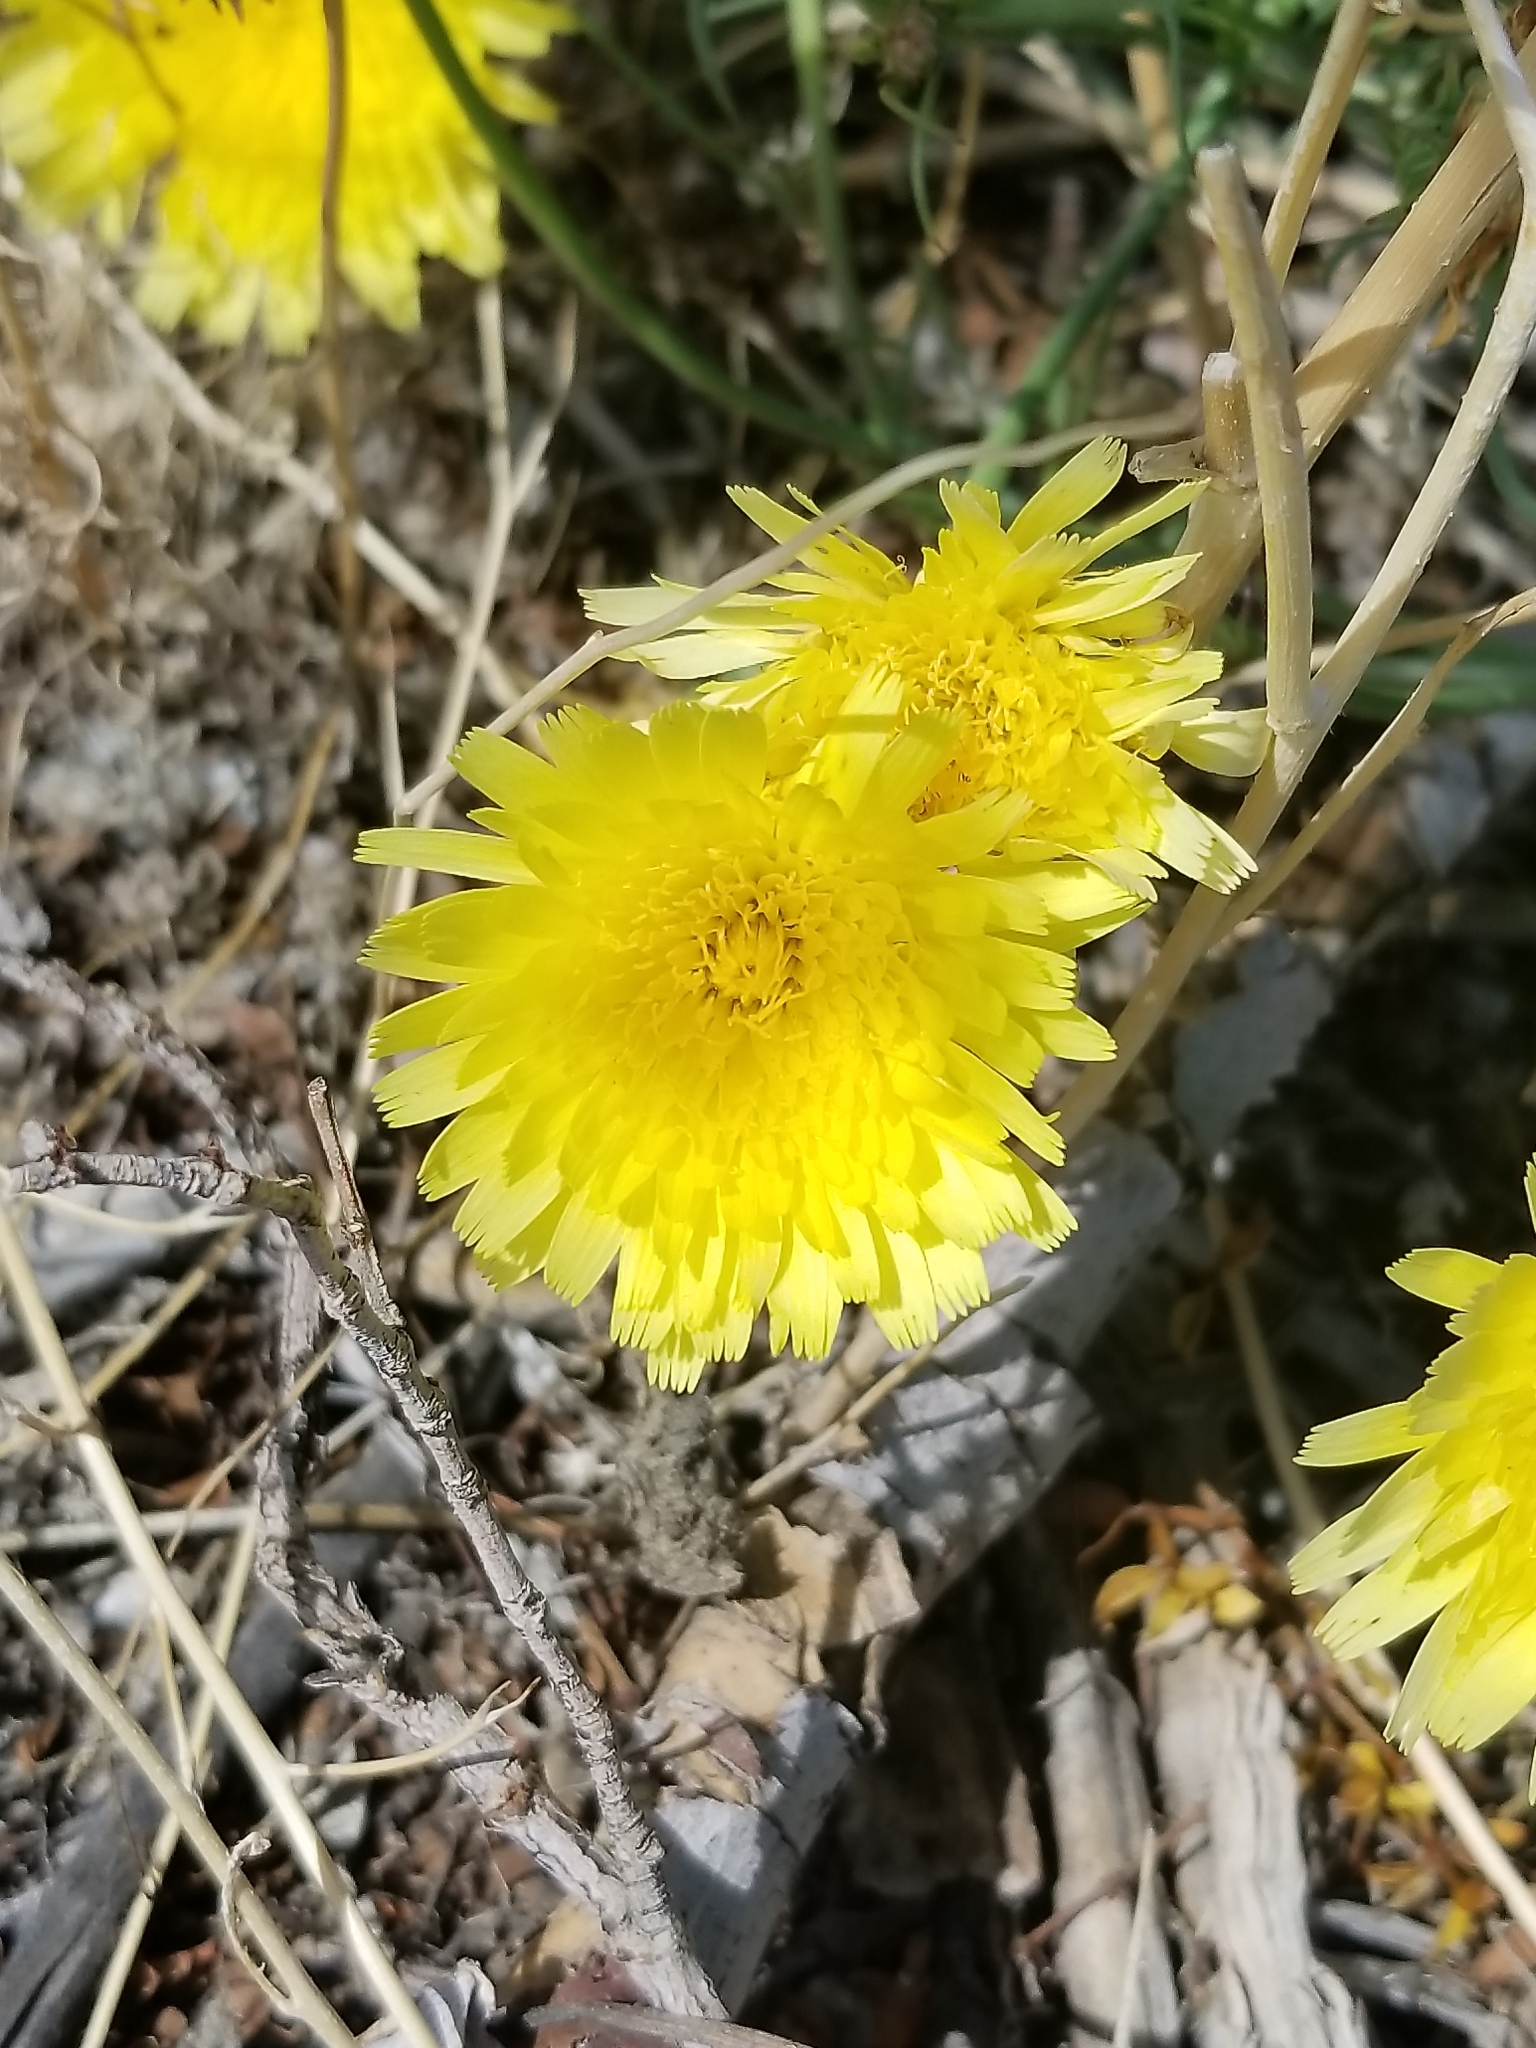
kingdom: Plantae
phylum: Tracheophyta
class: Magnoliopsida
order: Asterales
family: Asteraceae
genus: Malacothrix
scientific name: Malacothrix glabrata
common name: Smooth desert-dandelion
